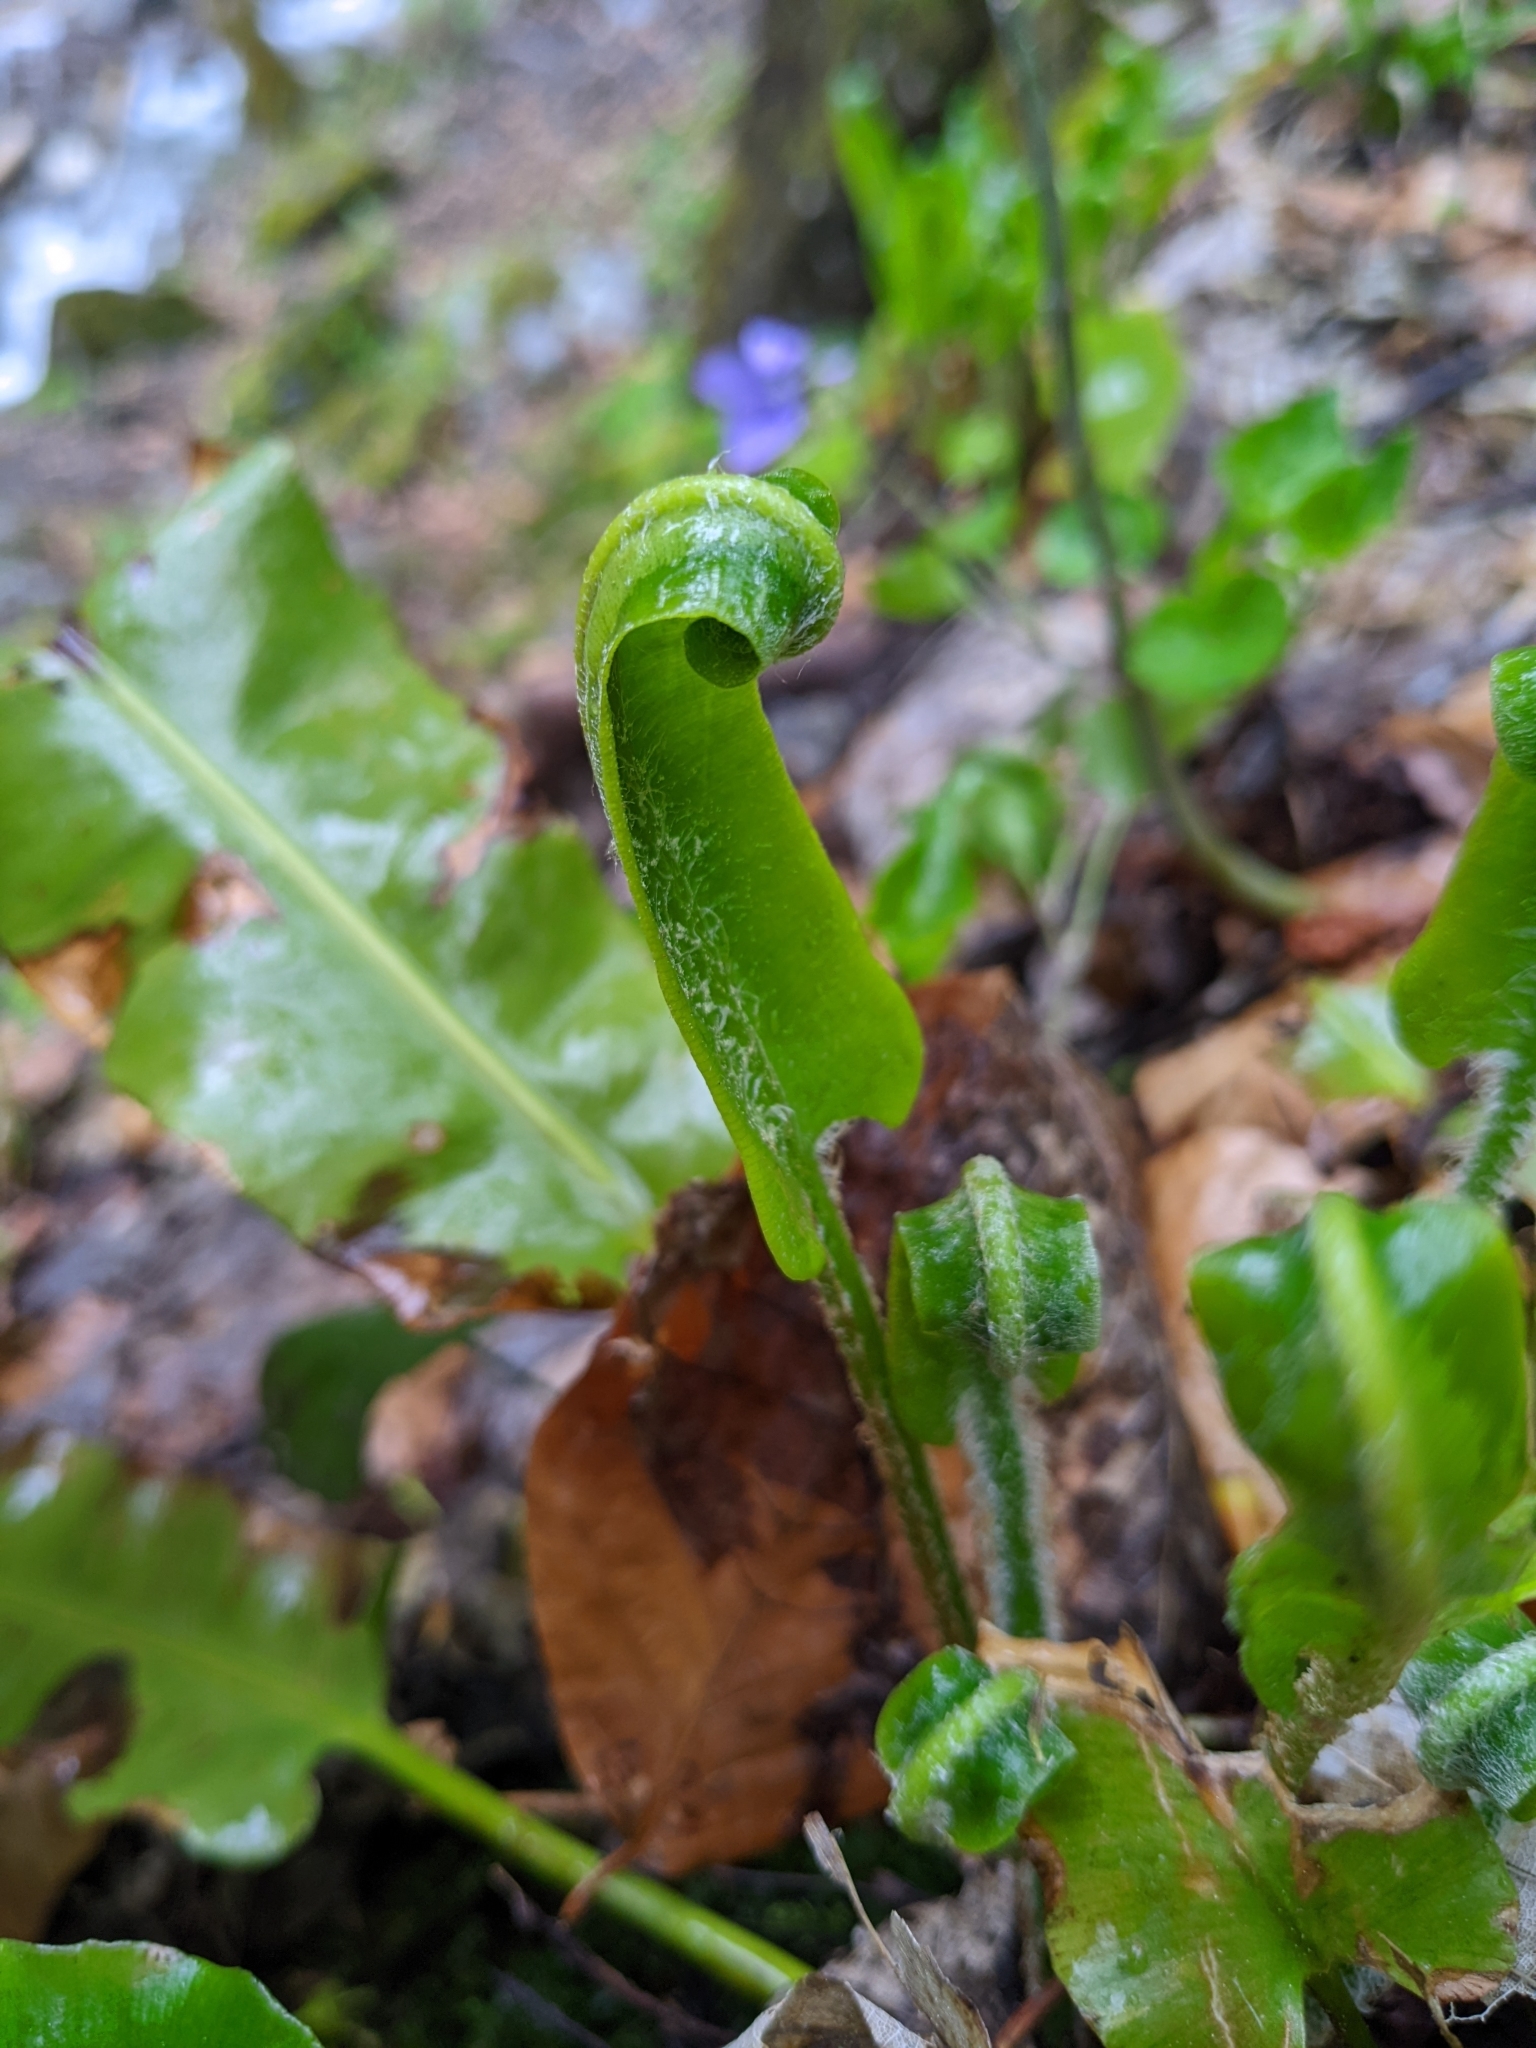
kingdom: Plantae
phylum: Tracheophyta
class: Polypodiopsida
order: Polypodiales
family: Aspleniaceae
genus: Asplenium
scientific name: Asplenium scolopendrium
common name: Hart's-tongue fern
